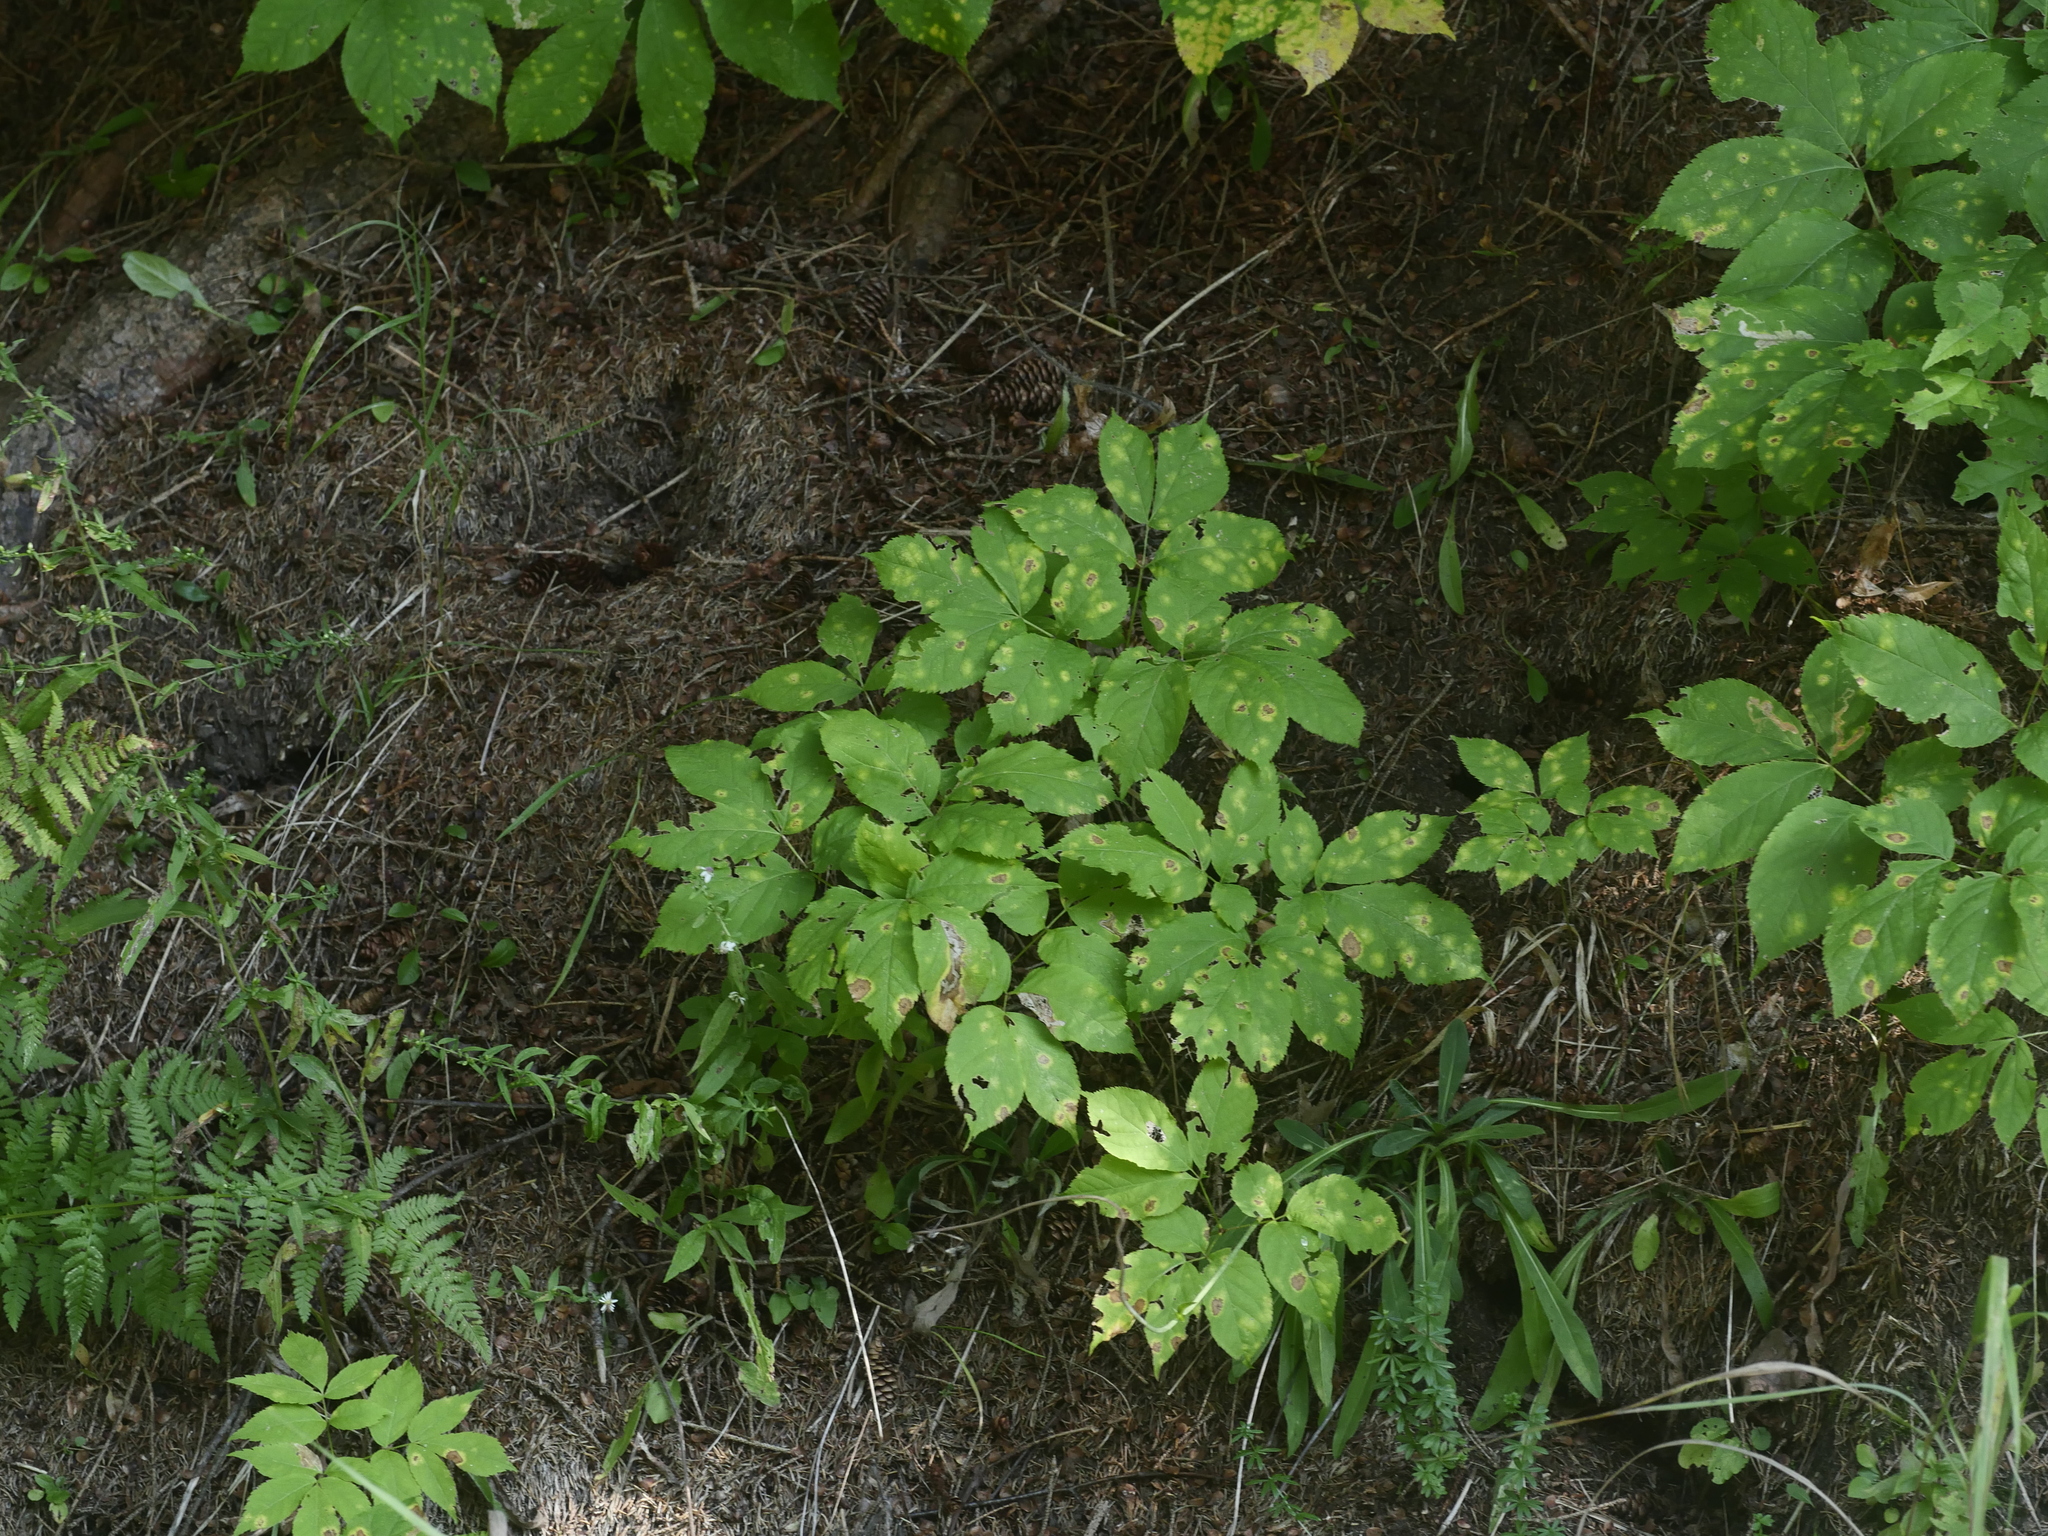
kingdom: Plantae
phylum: Tracheophyta
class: Magnoliopsida
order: Apiales
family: Araliaceae
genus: Aralia
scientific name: Aralia nudicaulis
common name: Wild sarsaparilla
